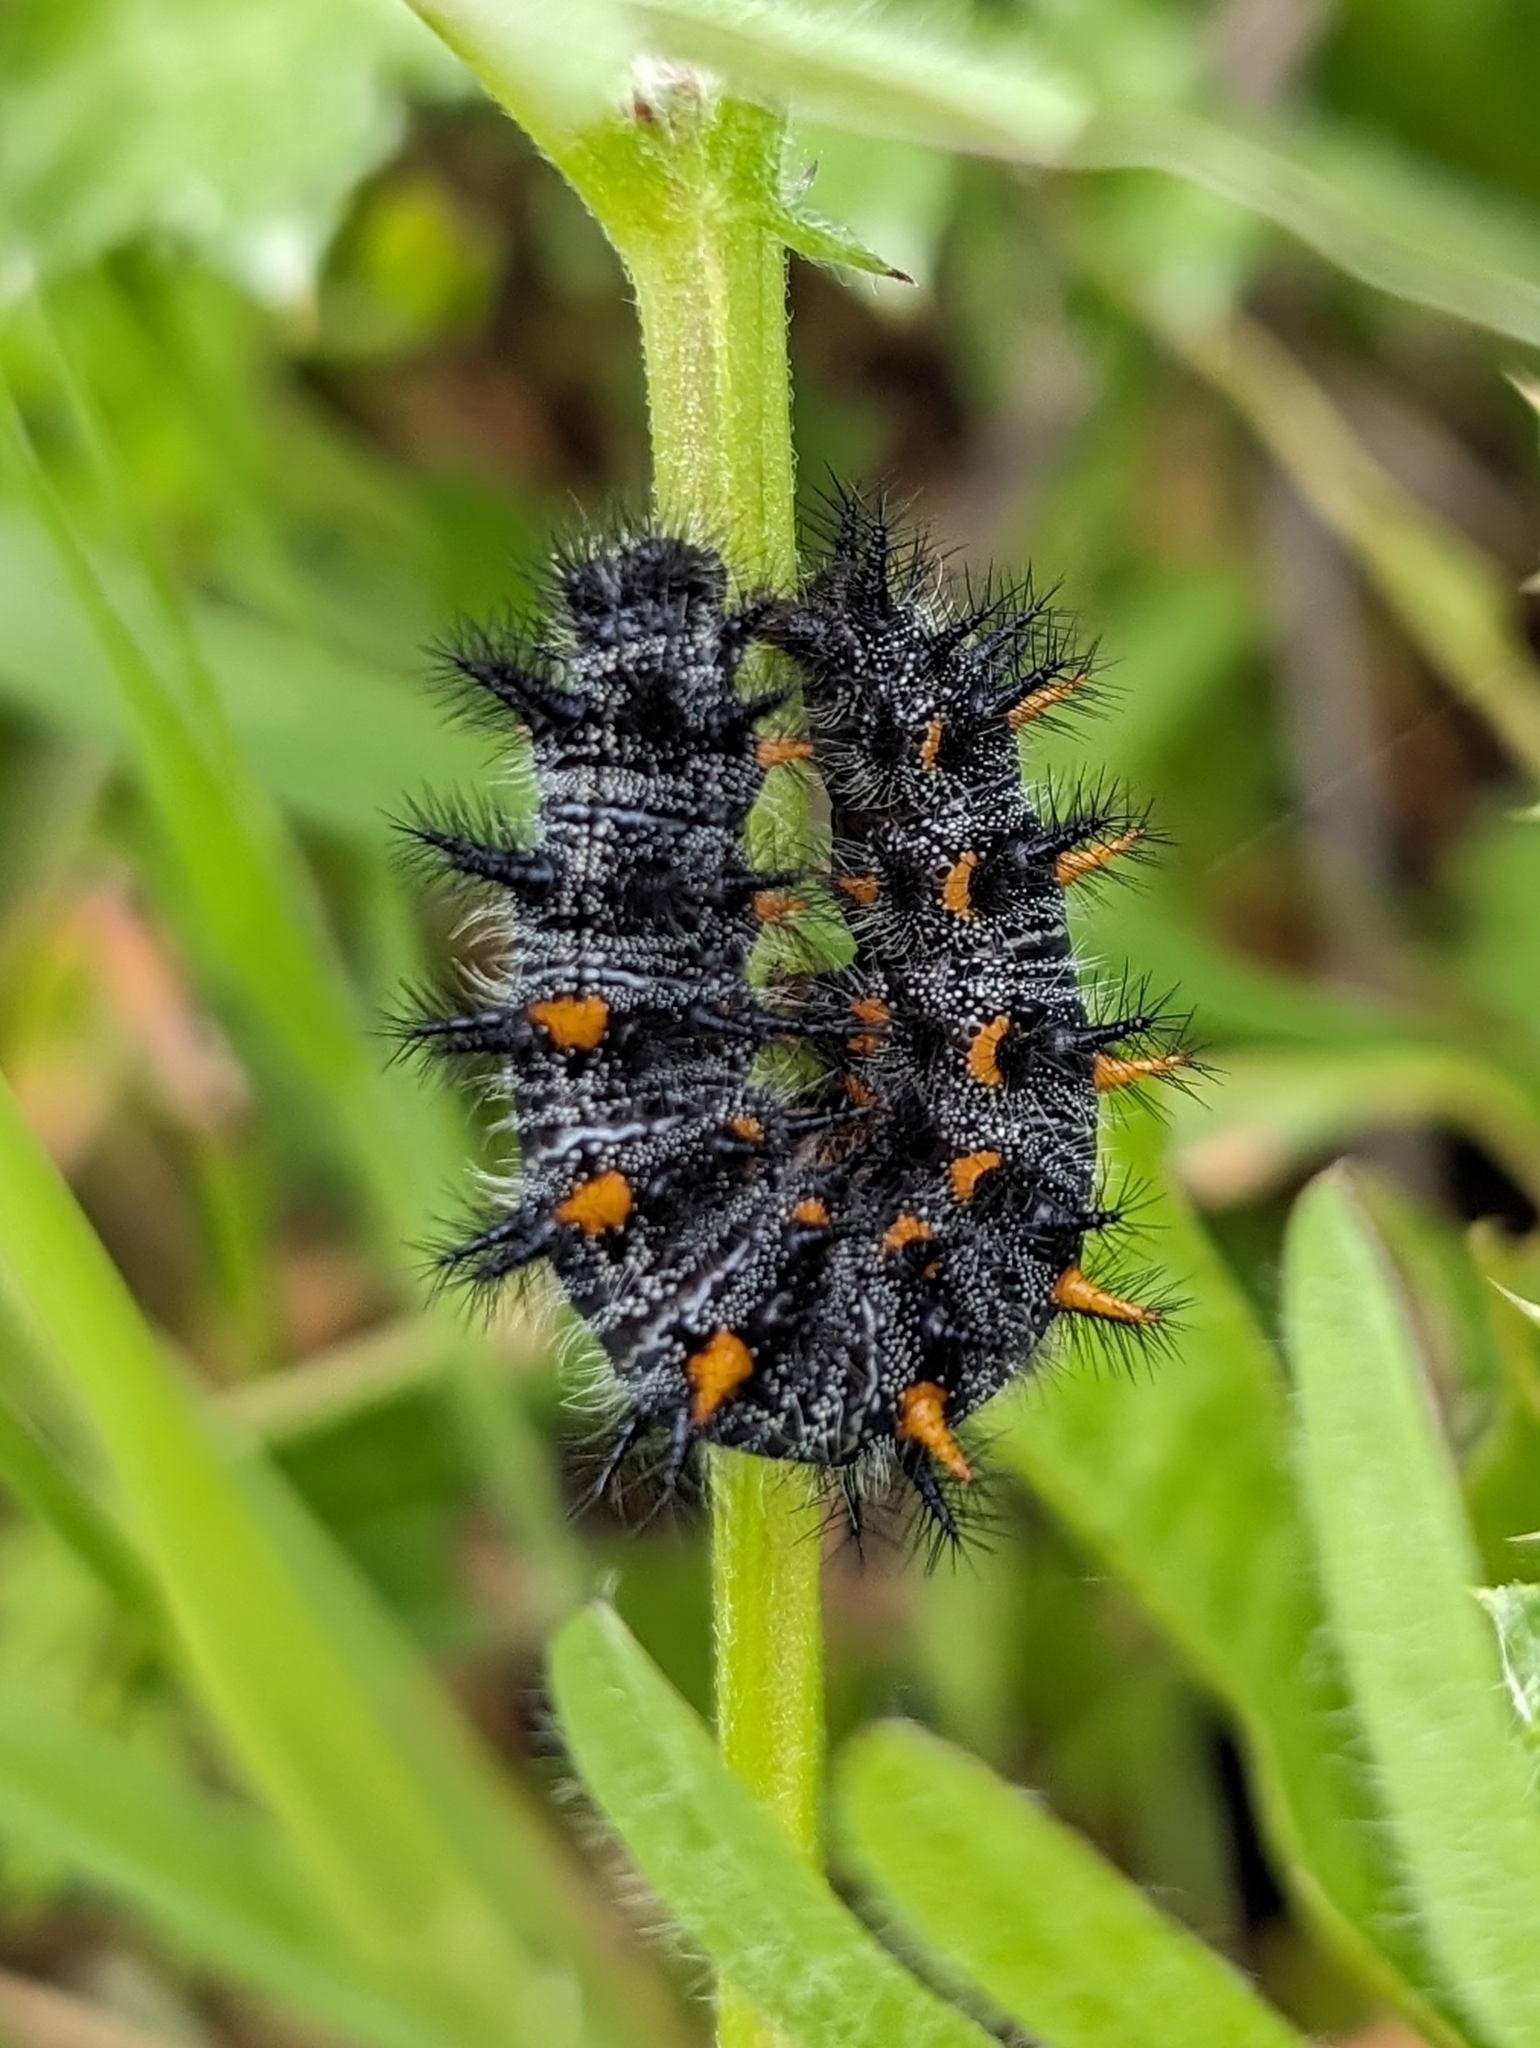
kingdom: Animalia
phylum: Arthropoda
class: Insecta
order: Lepidoptera
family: Nymphalidae
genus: Occidryas
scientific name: Occidryas chalcedona
